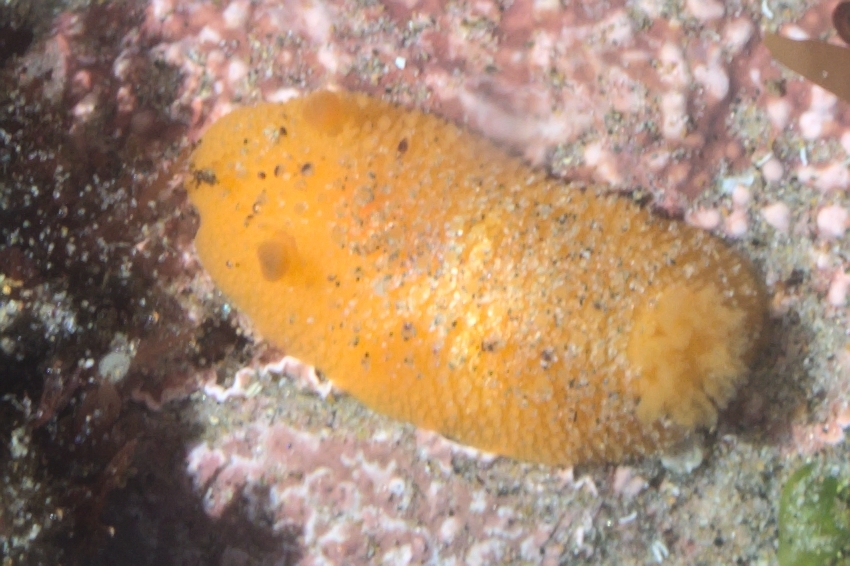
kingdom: Animalia
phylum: Mollusca
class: Gastropoda
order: Nudibranchia
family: Dorididae
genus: Doris
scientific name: Doris montereyensis
